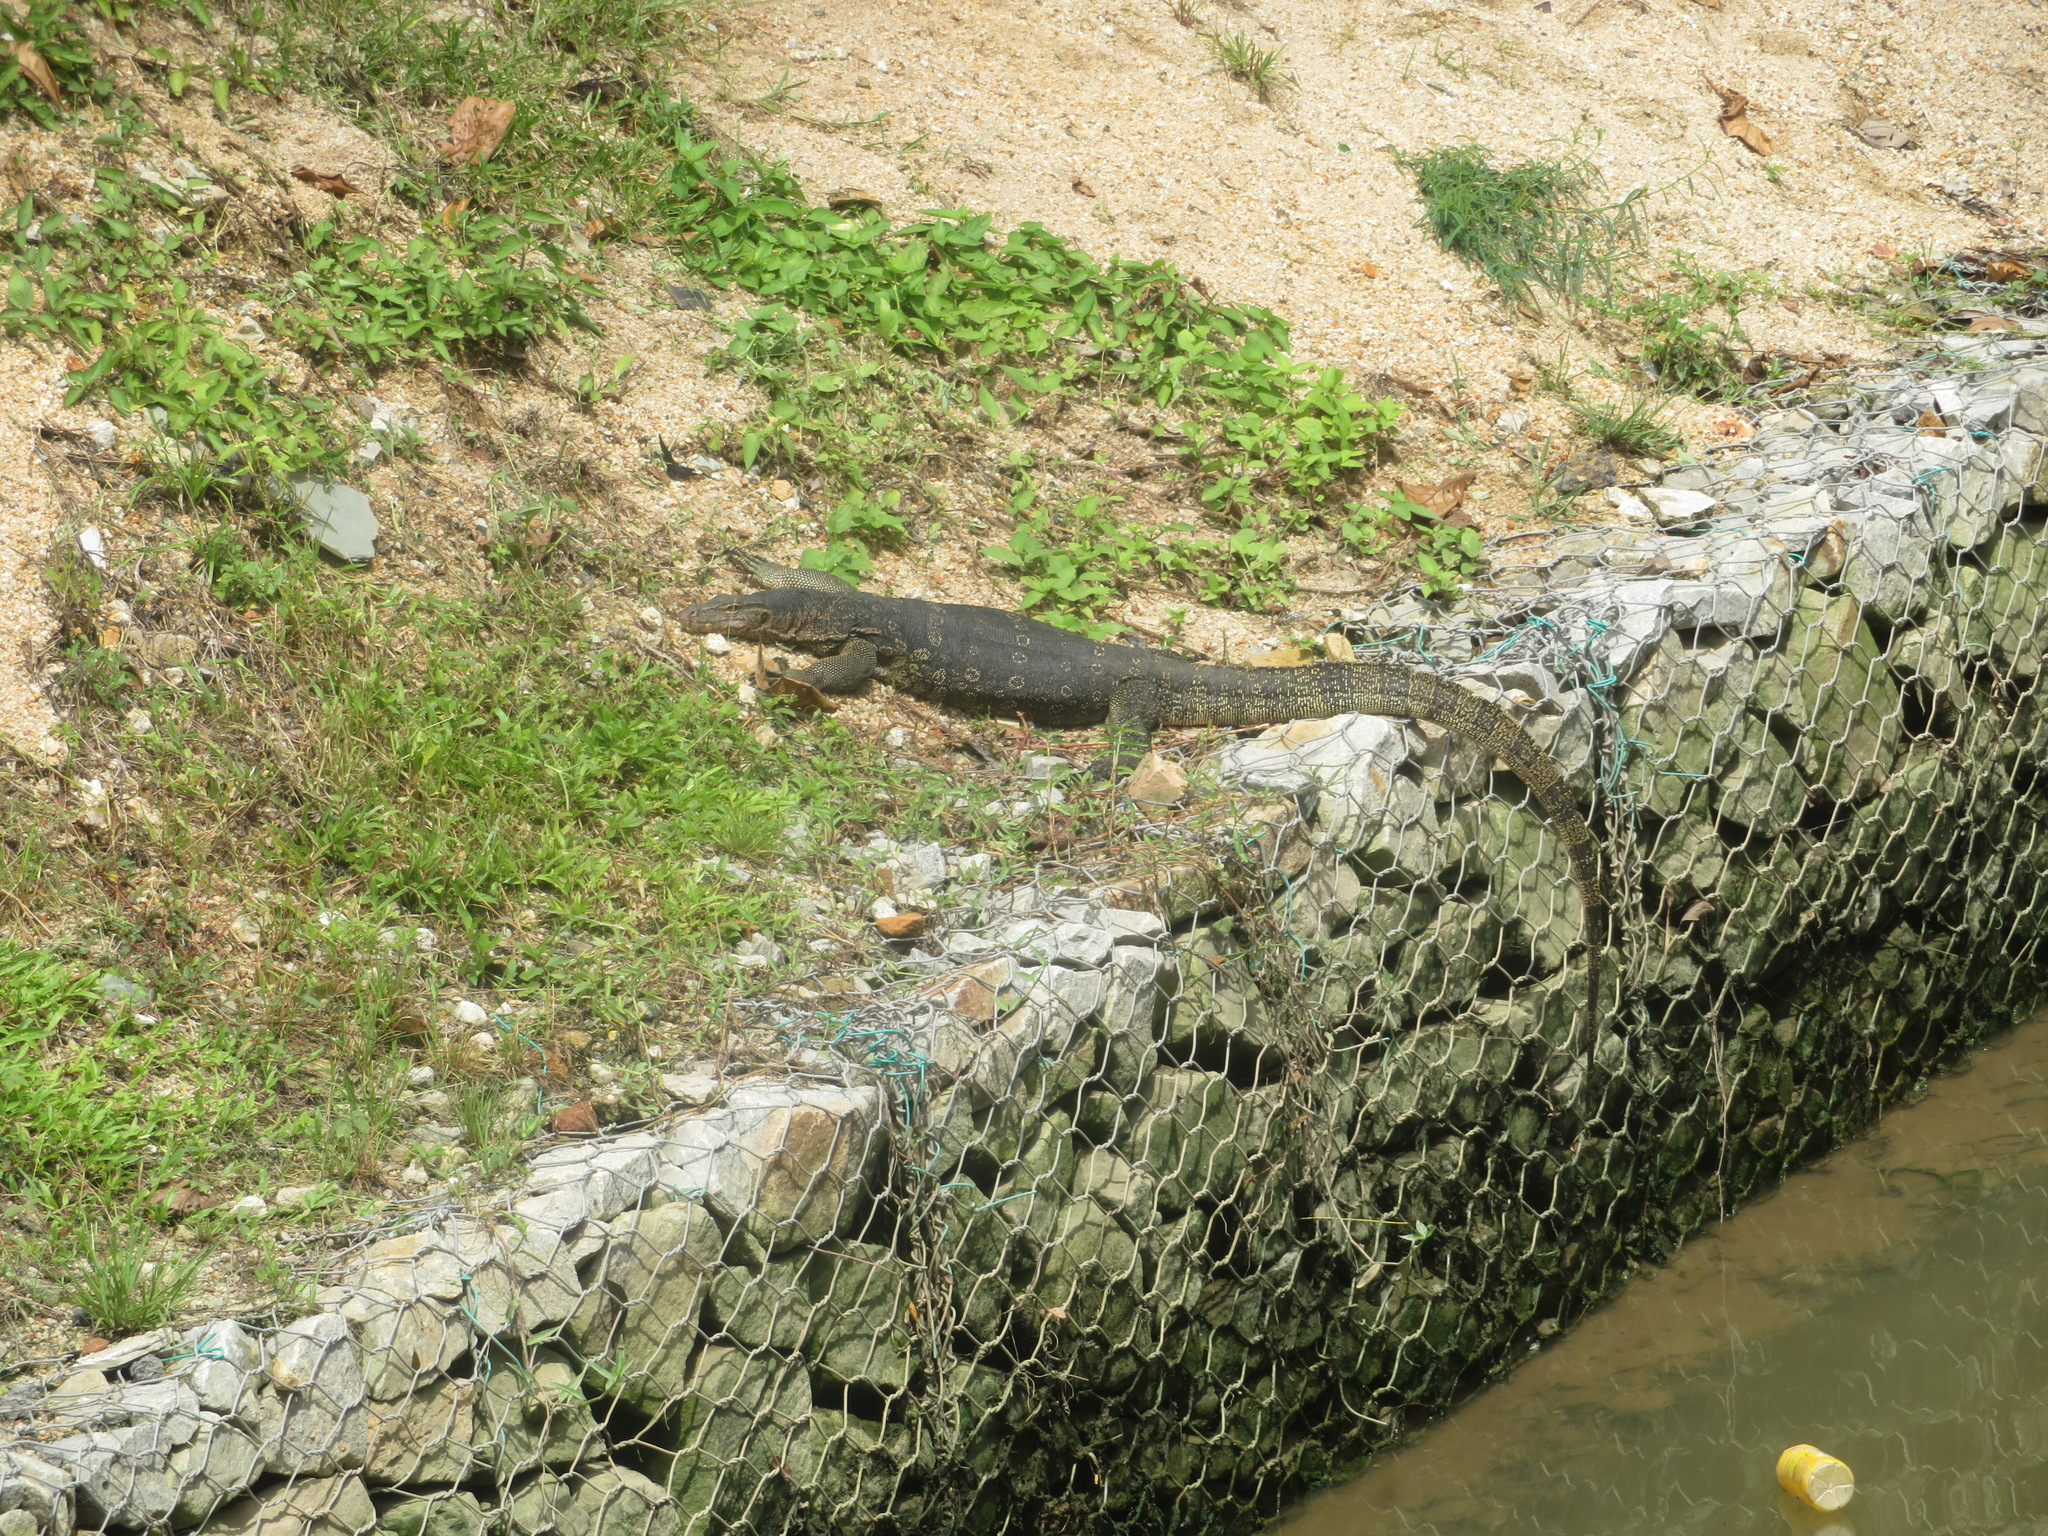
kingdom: Animalia
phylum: Chordata
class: Squamata
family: Varanidae
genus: Varanus
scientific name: Varanus salvator
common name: Common water monitor
